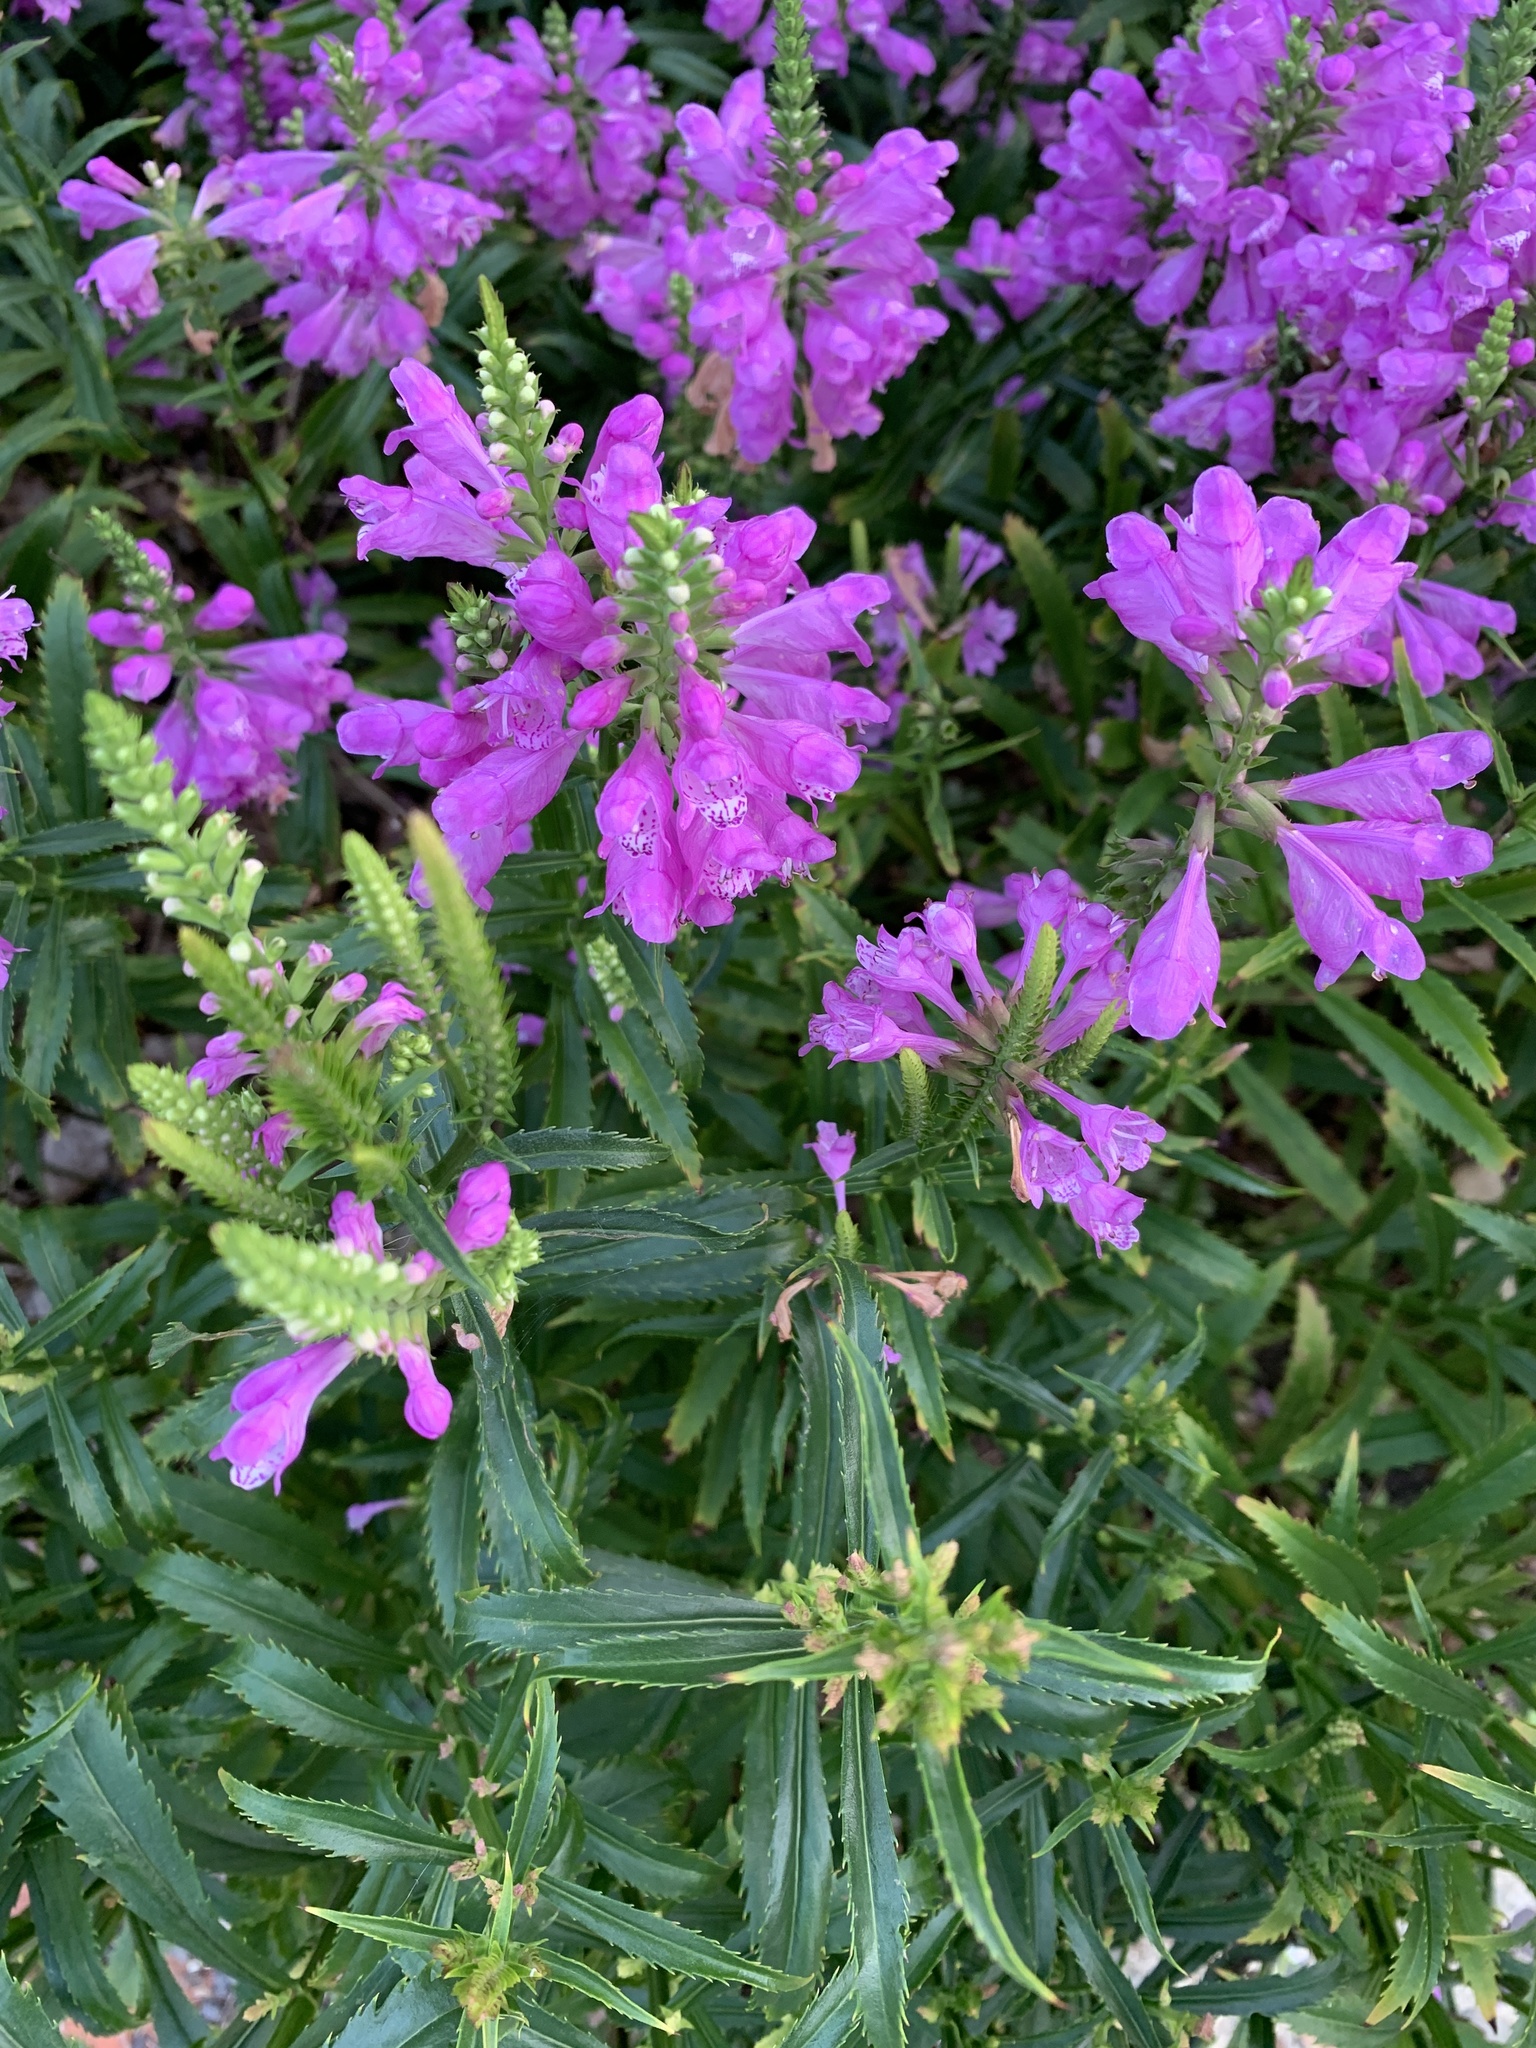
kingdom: Plantae
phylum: Tracheophyta
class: Magnoliopsida
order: Lamiales
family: Lamiaceae
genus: Physostegia
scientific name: Physostegia virginiana
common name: Obedient-plant
